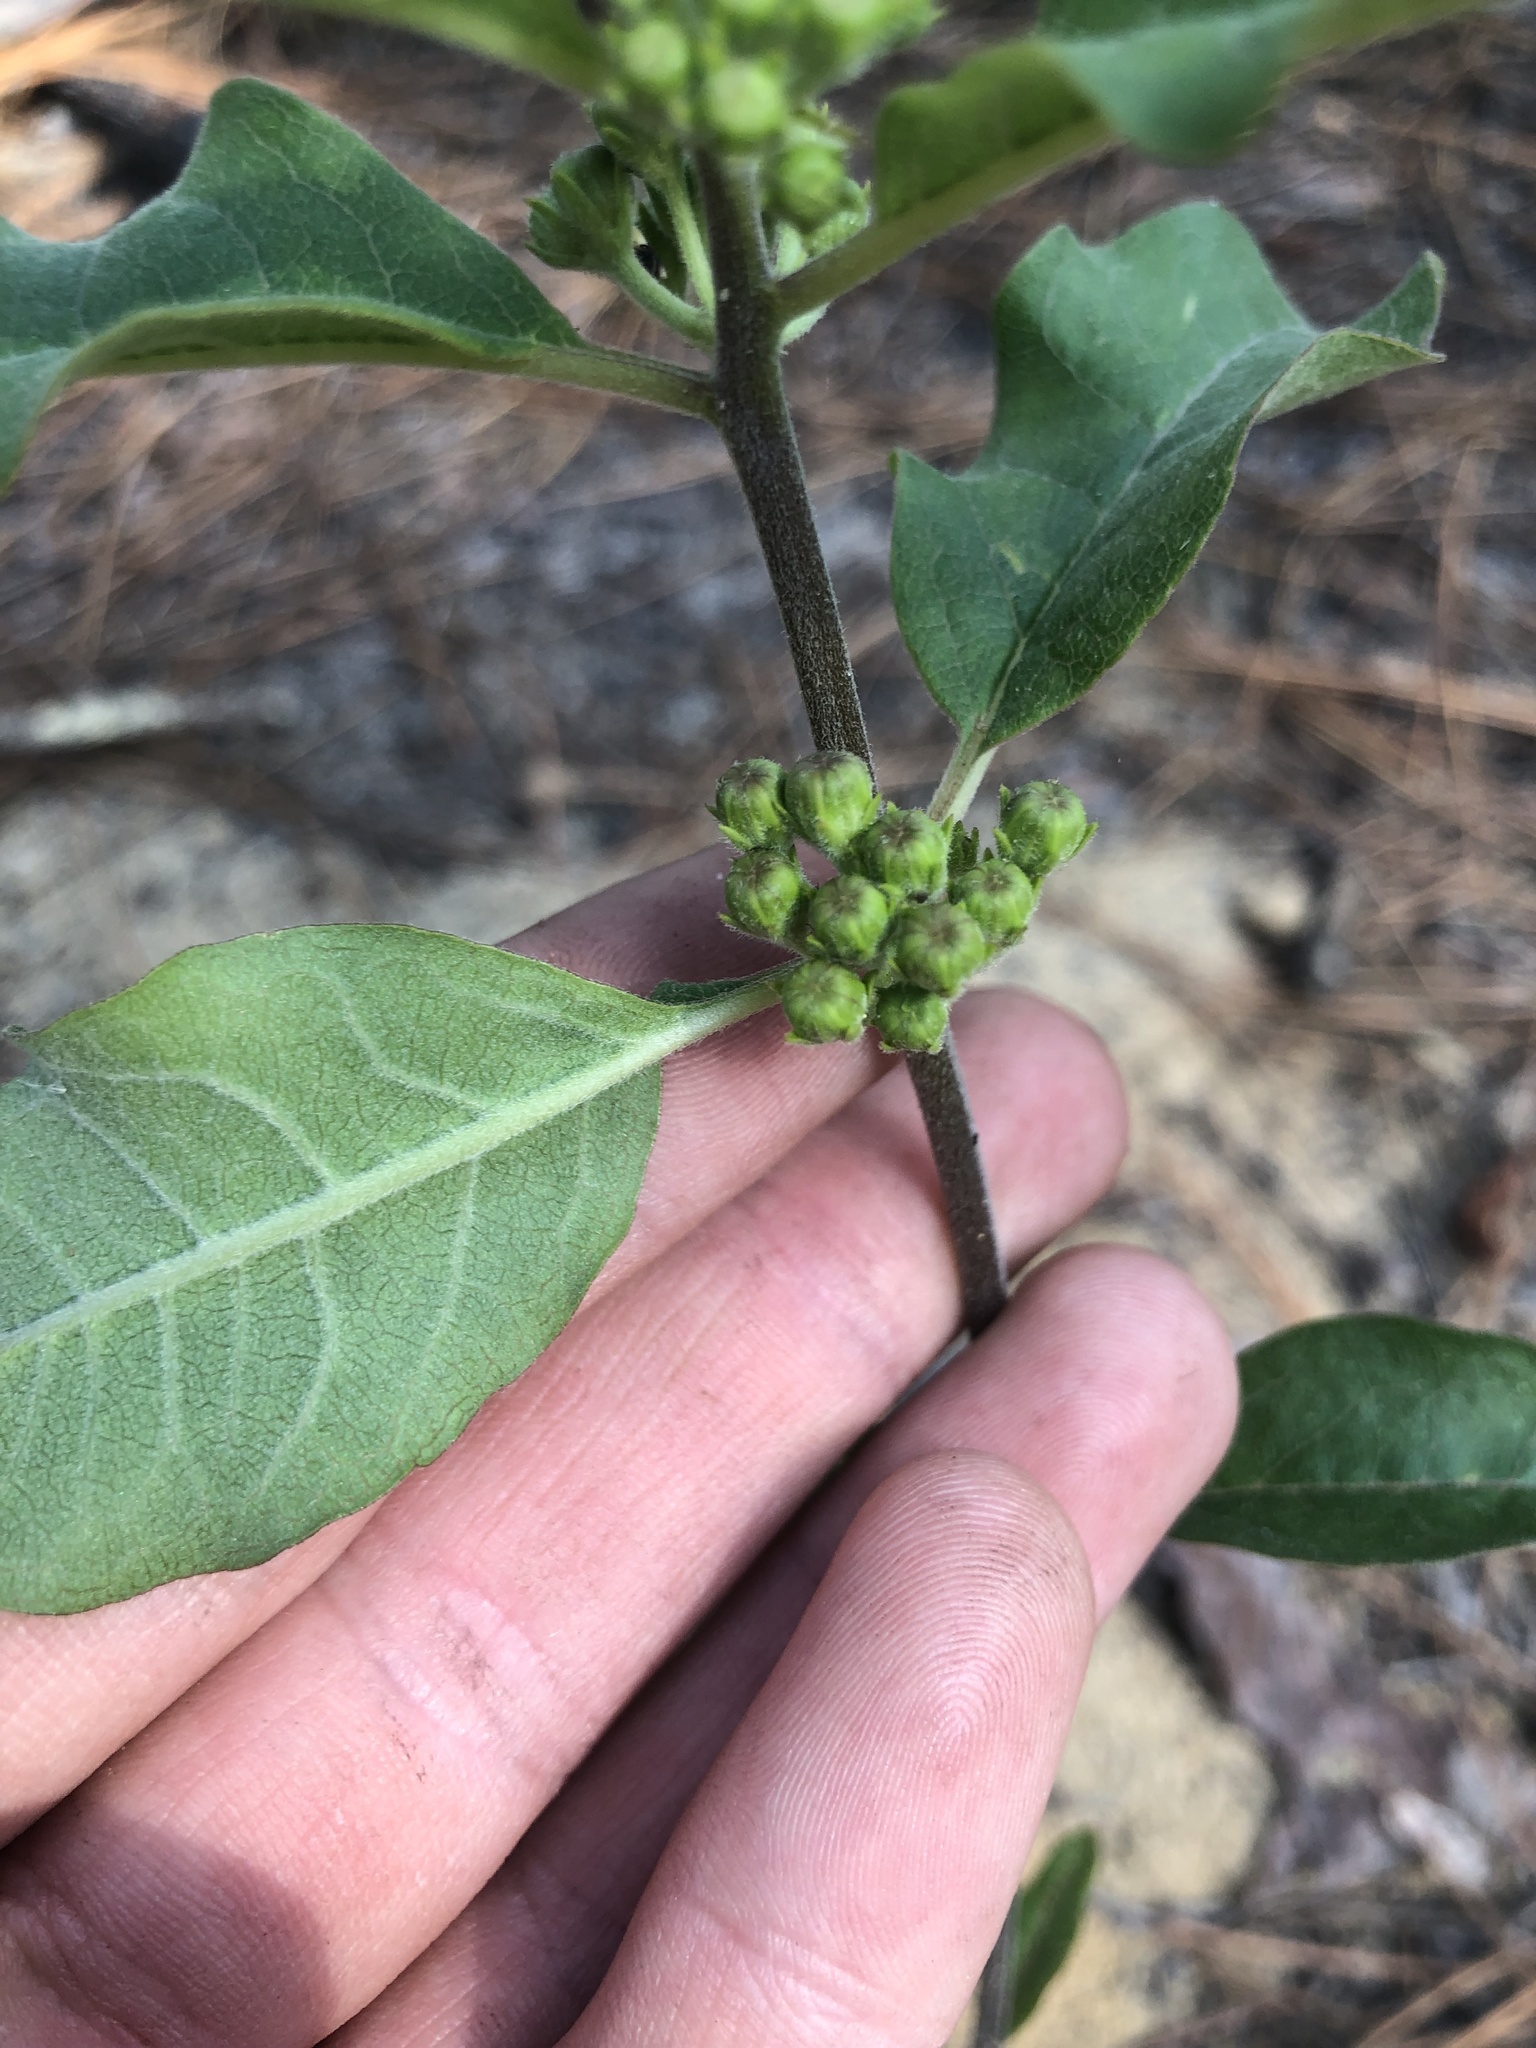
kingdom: Plantae
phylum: Tracheophyta
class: Magnoliopsida
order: Gentianales
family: Apocynaceae
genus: Asclepias
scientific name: Asclepias tomentosa
